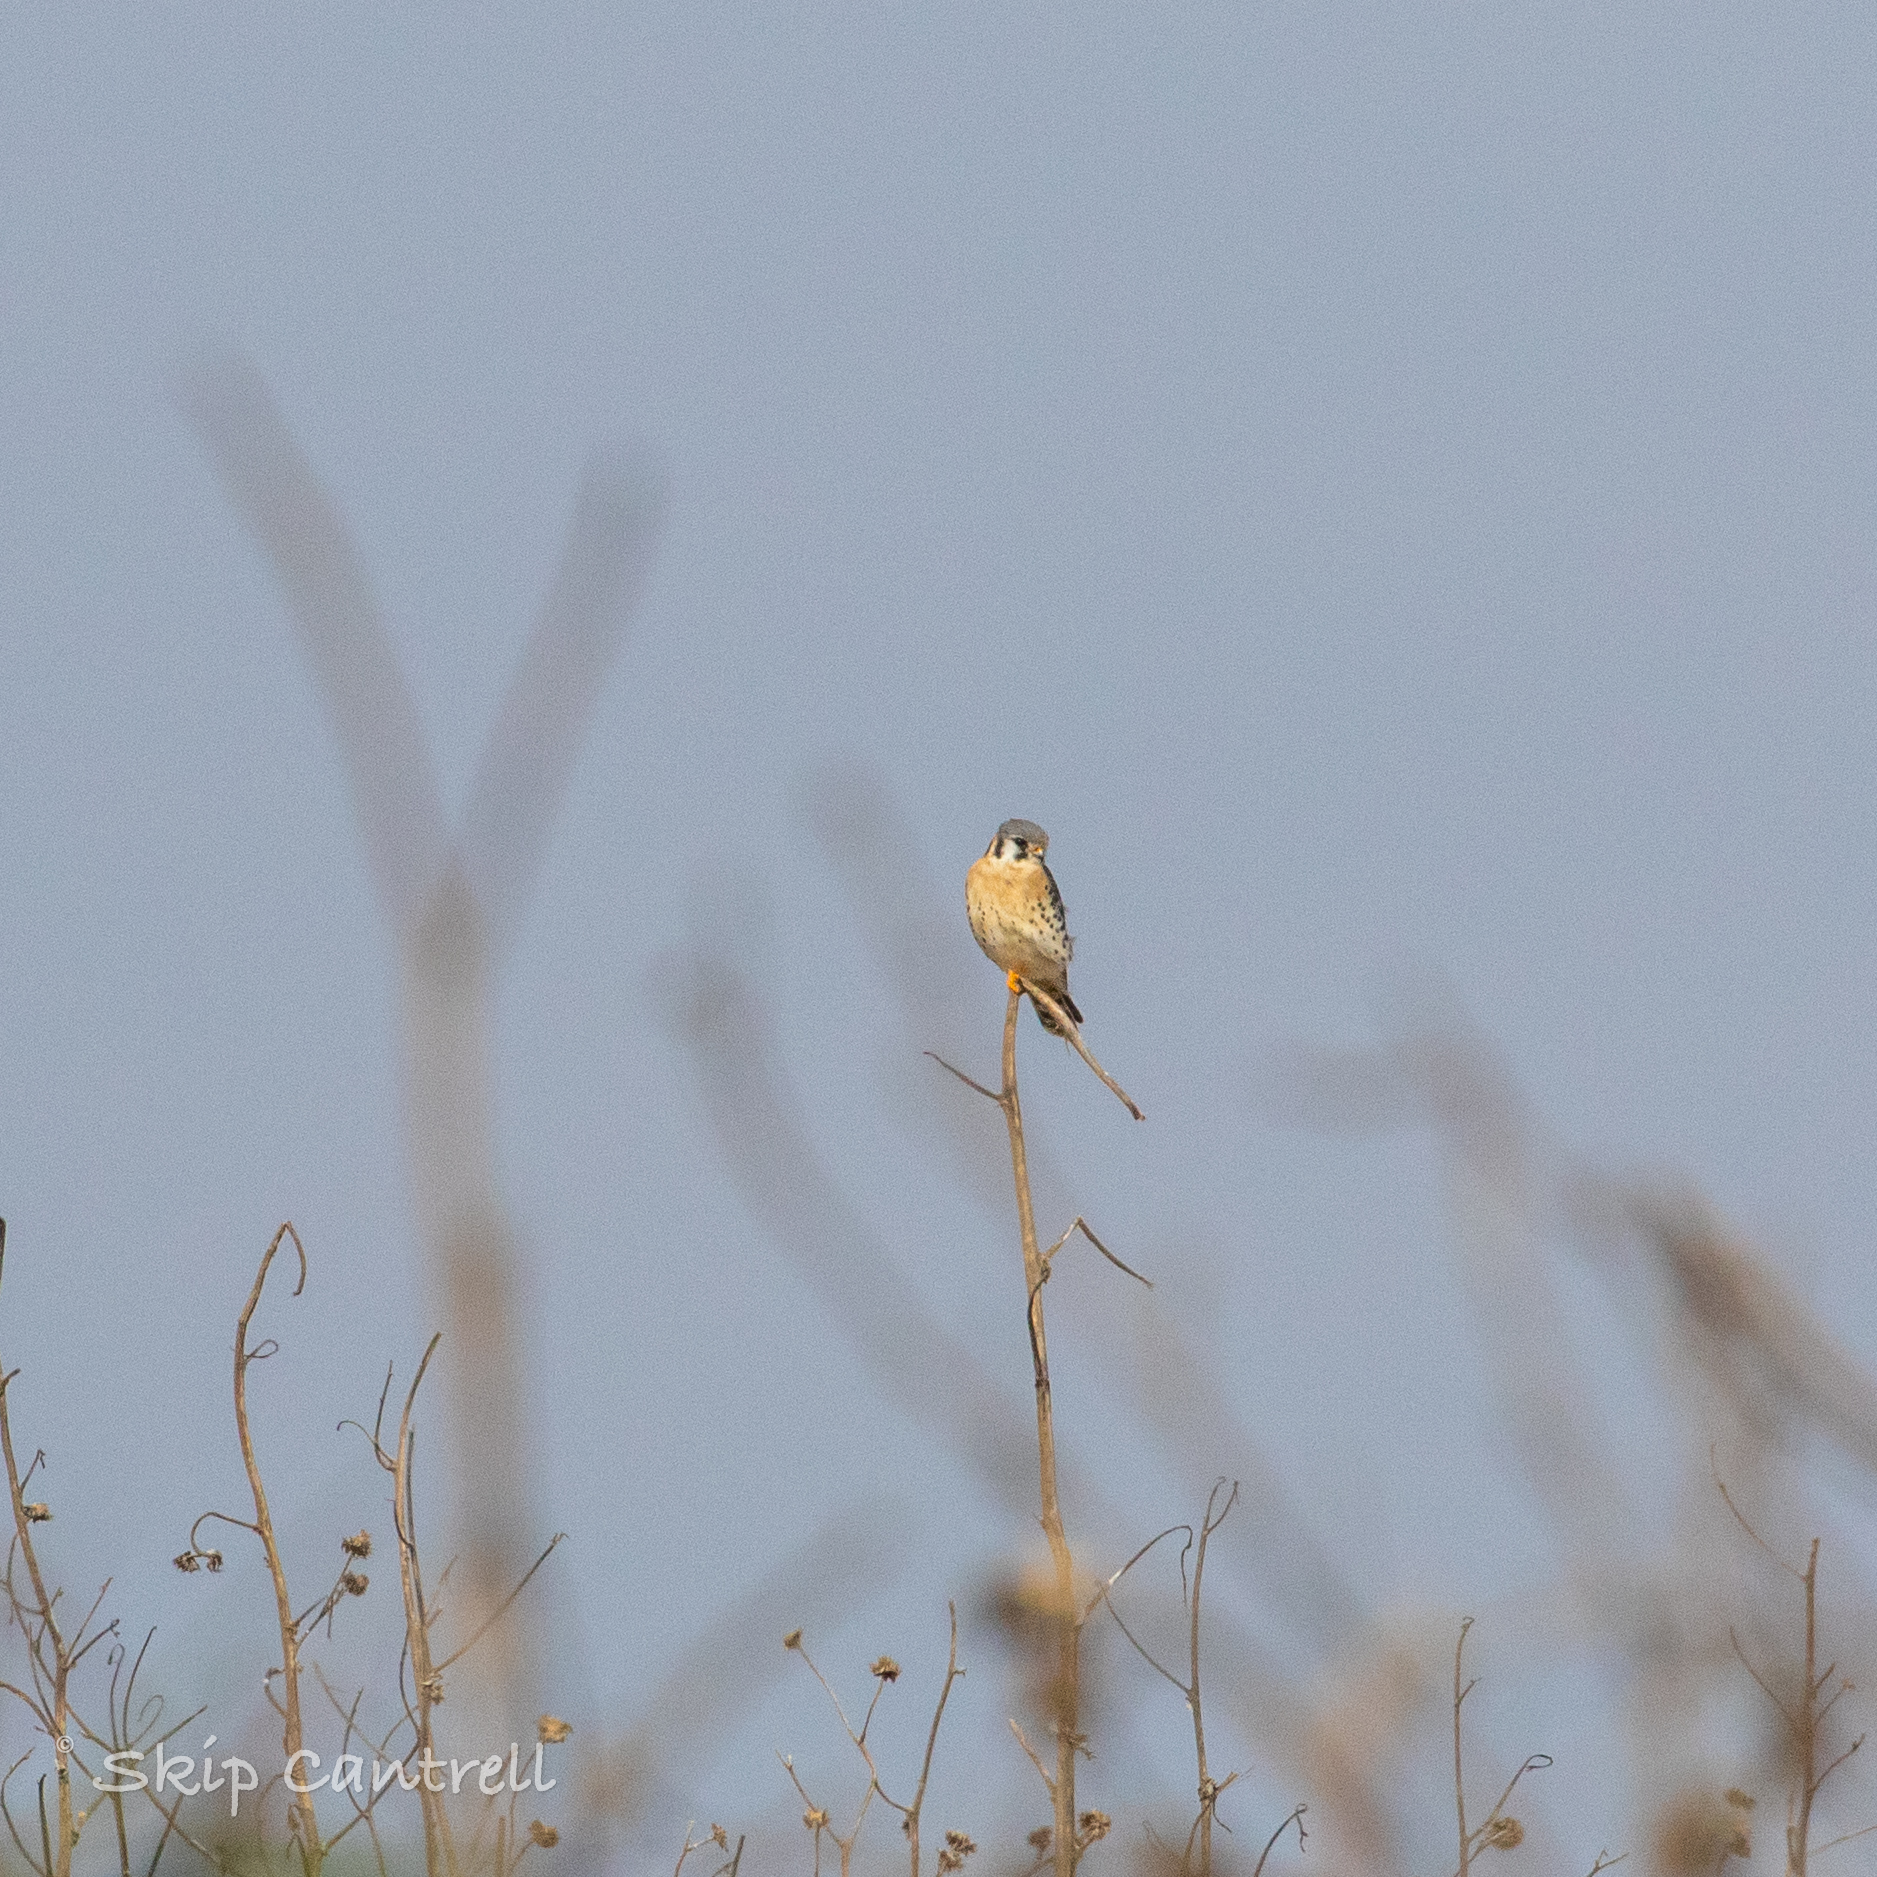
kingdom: Animalia
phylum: Chordata
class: Aves
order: Falconiformes
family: Falconidae
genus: Falco
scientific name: Falco sparverius
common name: American kestrel
